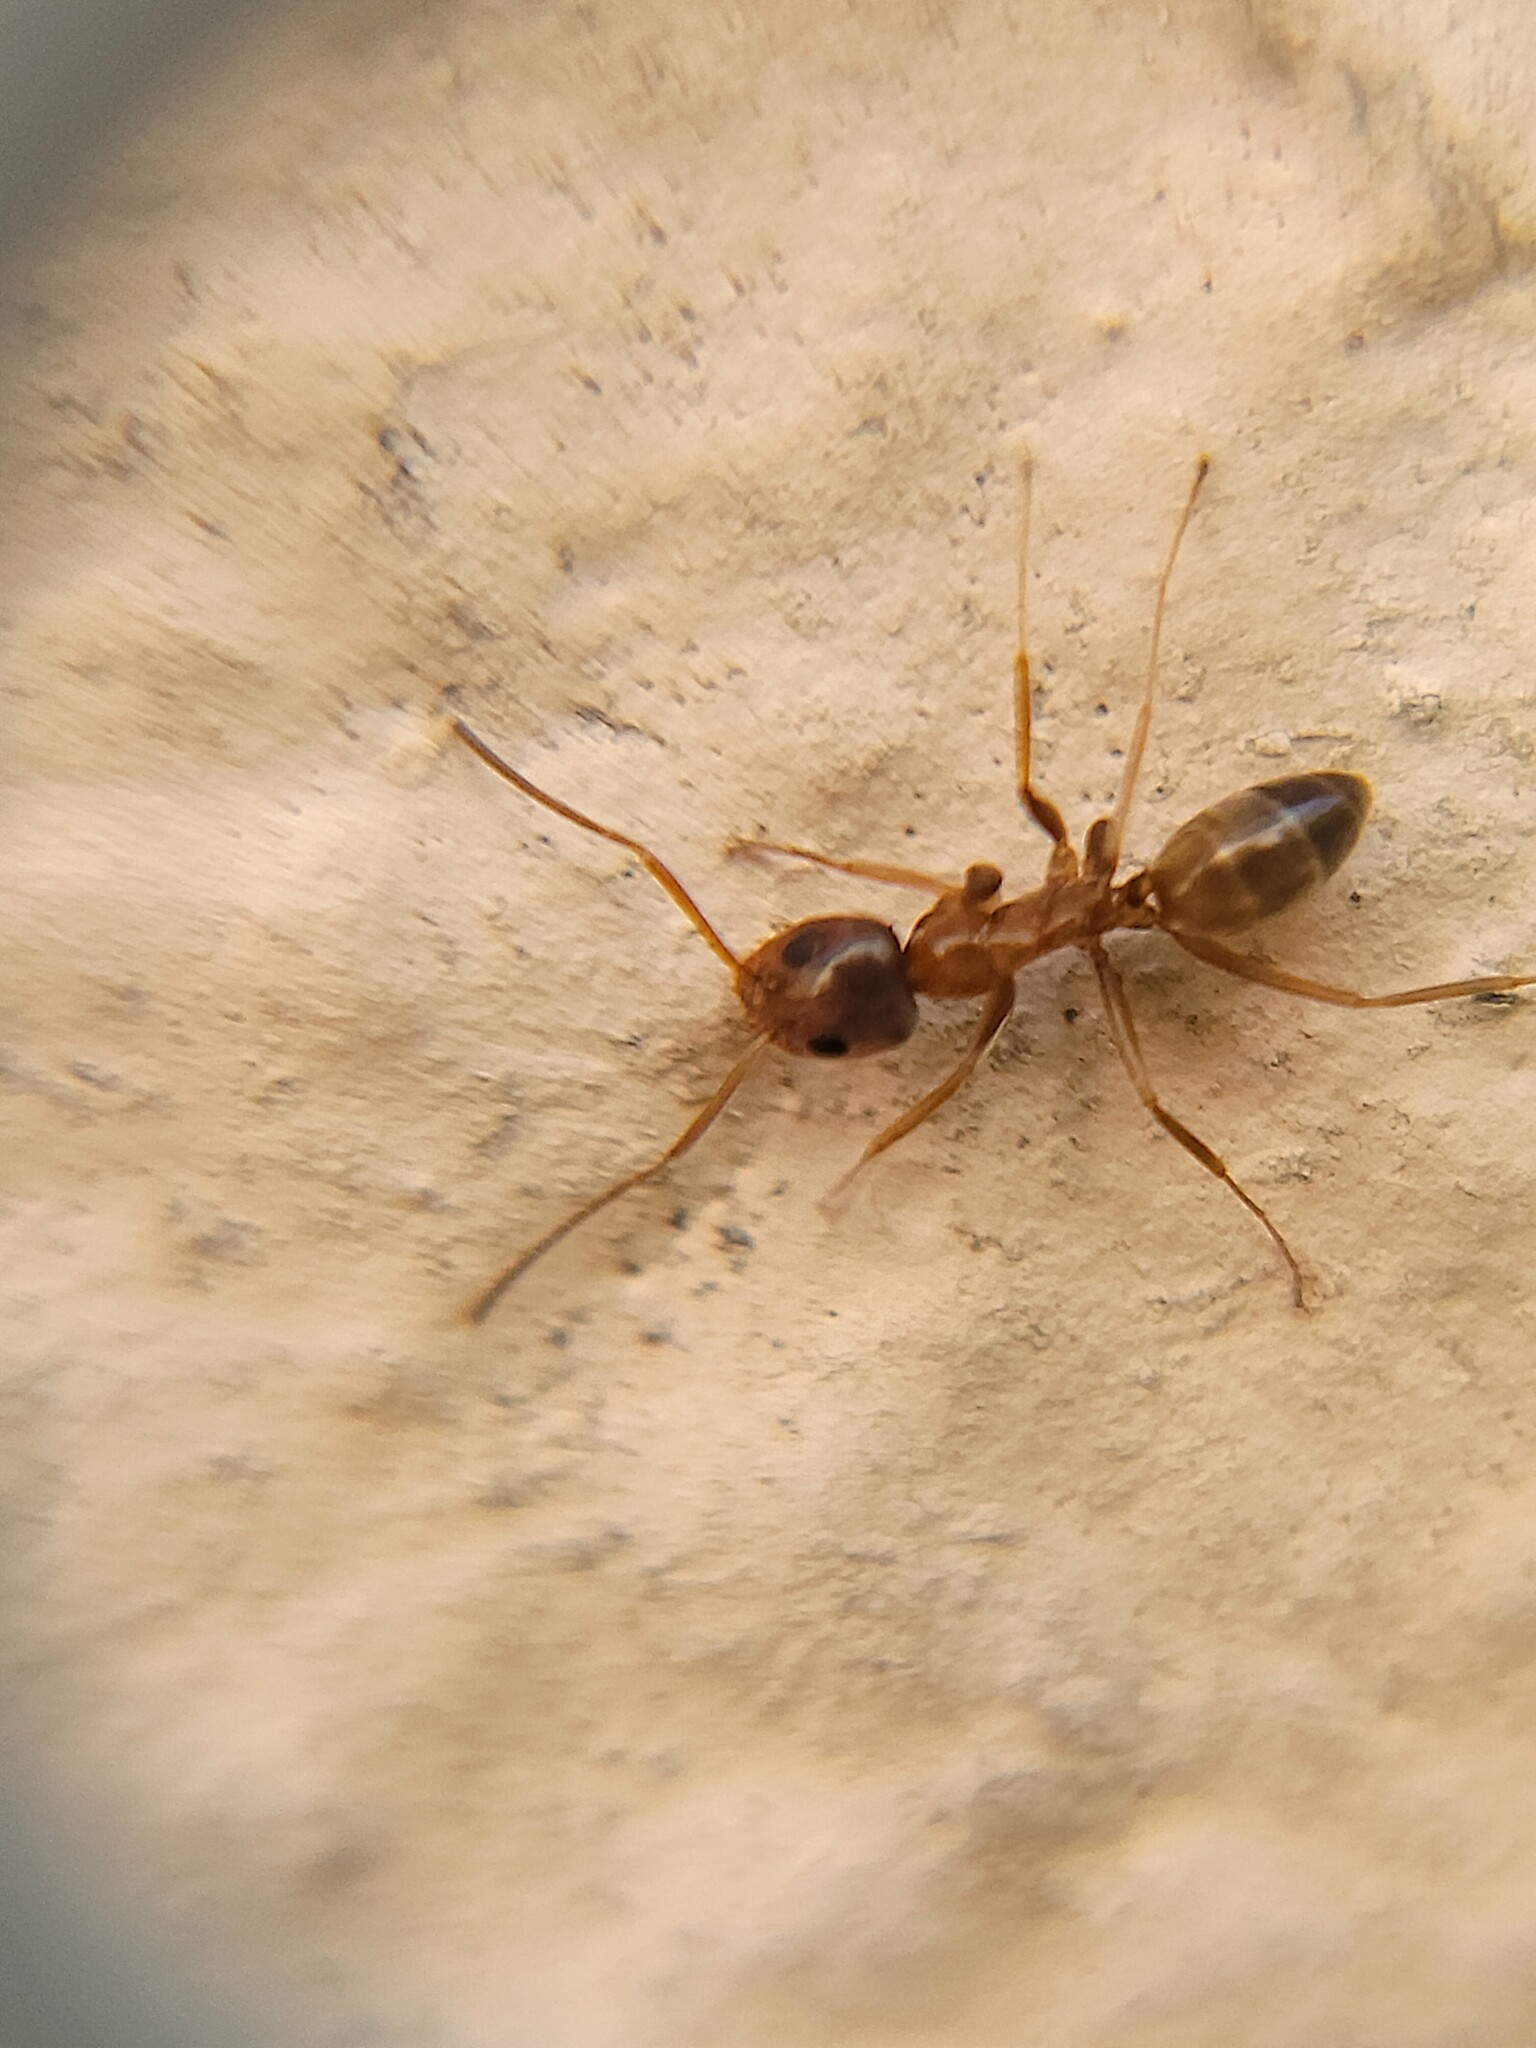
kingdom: Animalia
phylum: Arthropoda
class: Insecta
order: Hymenoptera
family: Formicidae
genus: Dorymyrmex
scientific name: Dorymyrmex flavus
